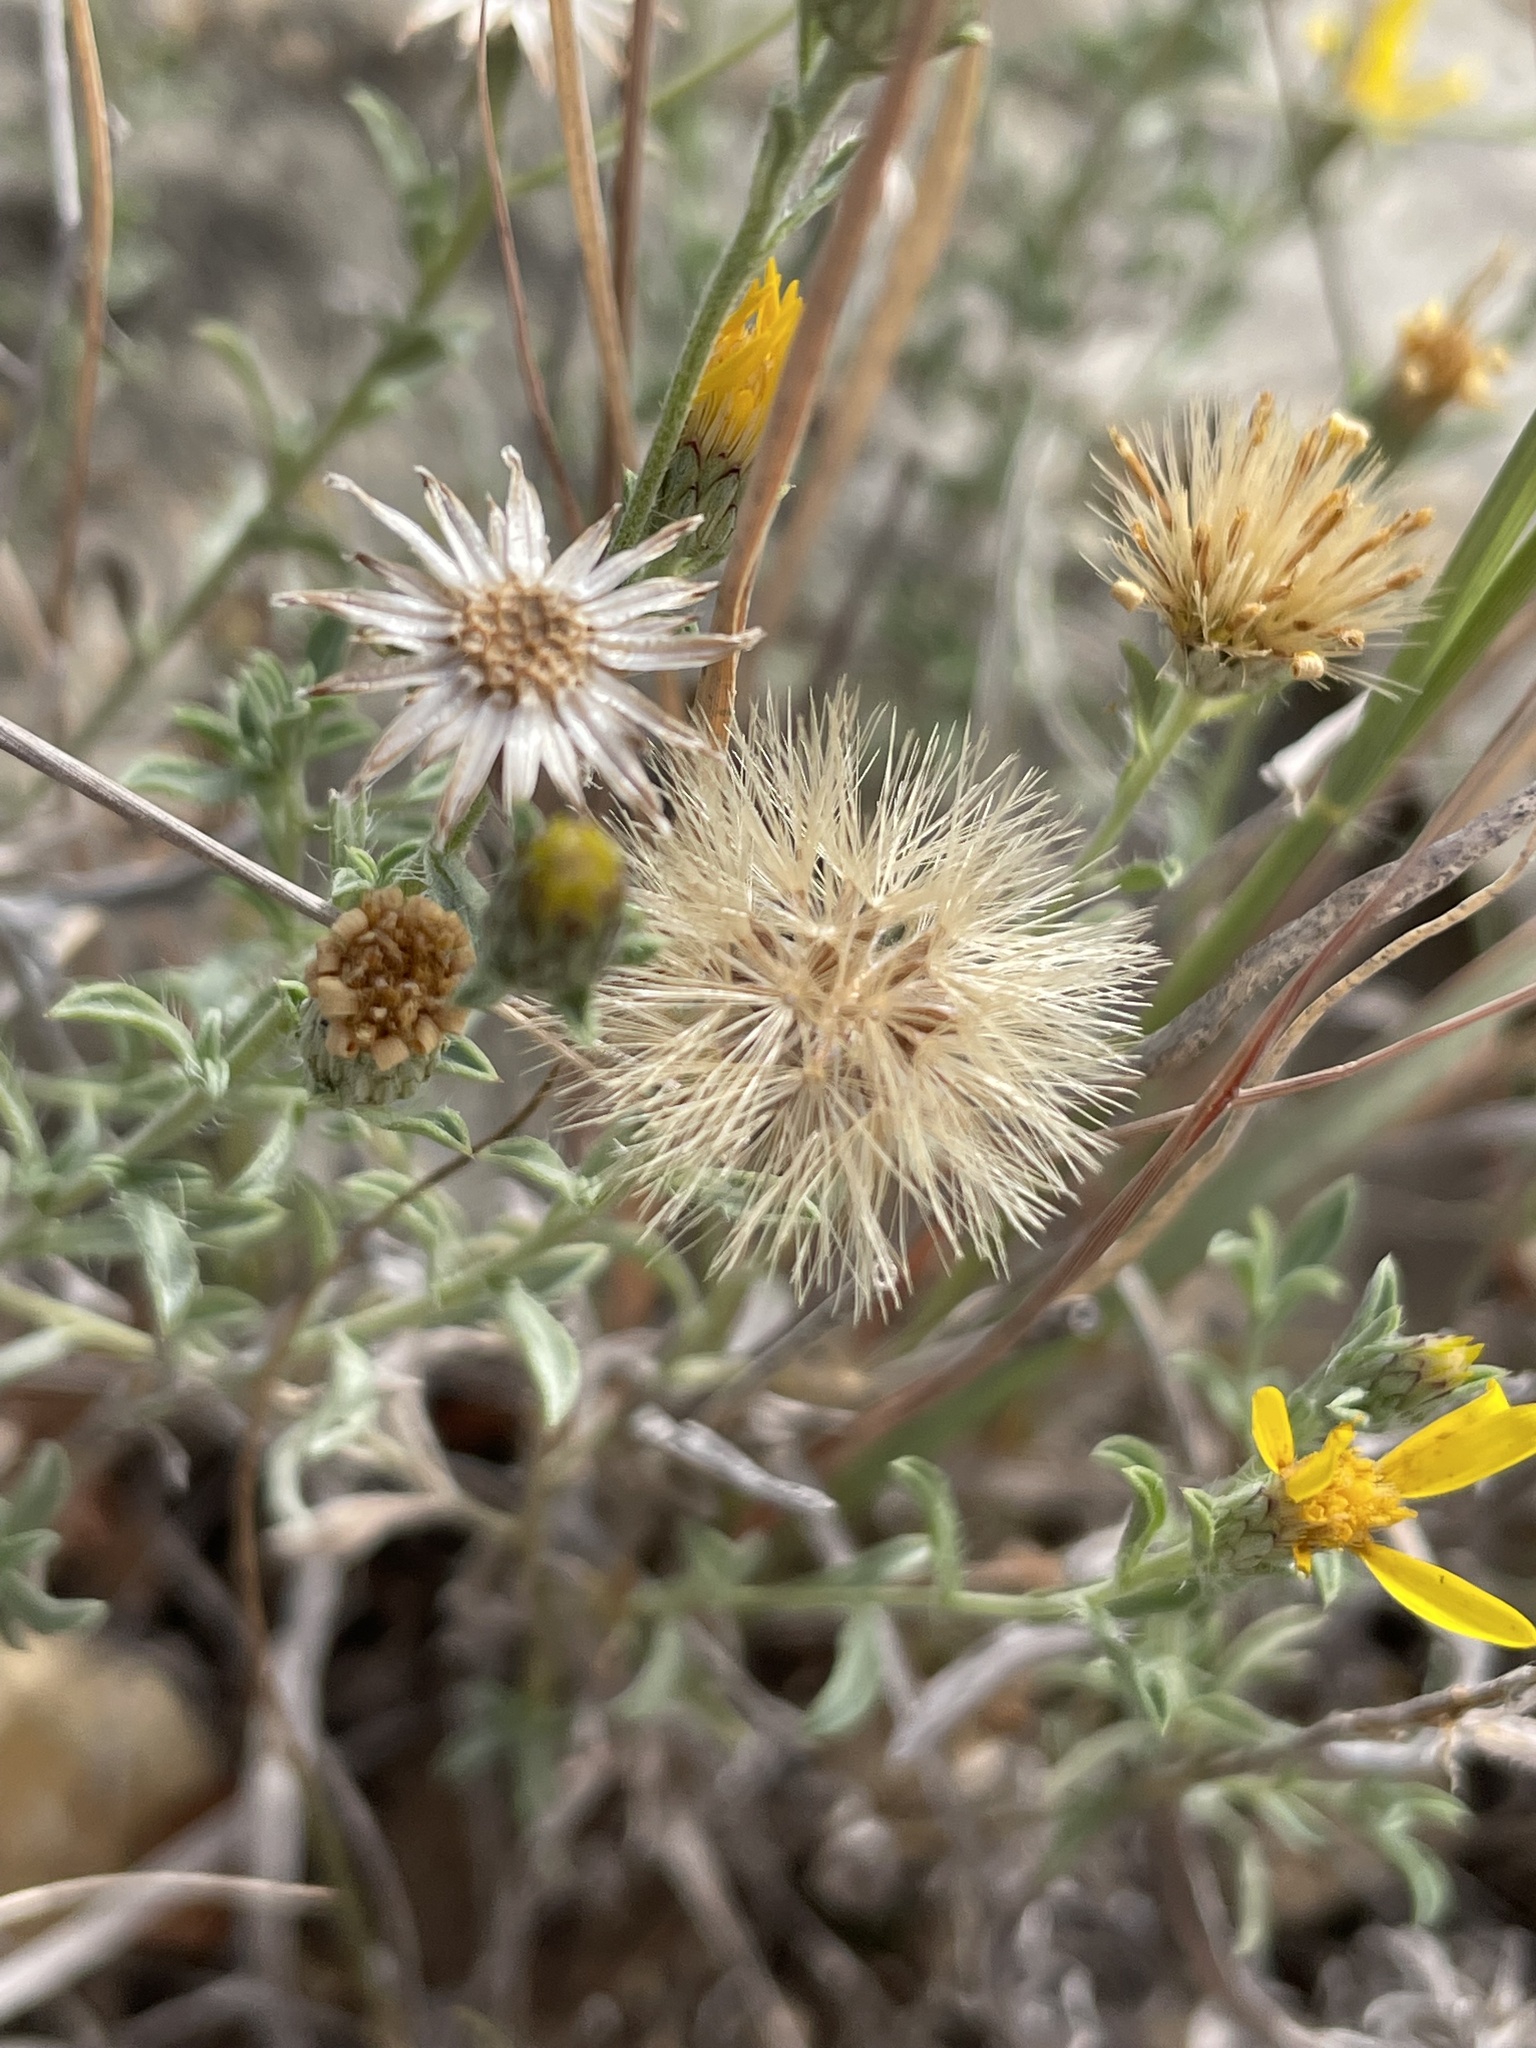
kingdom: Plantae
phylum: Tracheophyta
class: Magnoliopsida
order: Asterales
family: Asteraceae
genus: Heterotheca
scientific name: Heterotheca canescens
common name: Hoary golden-aster
